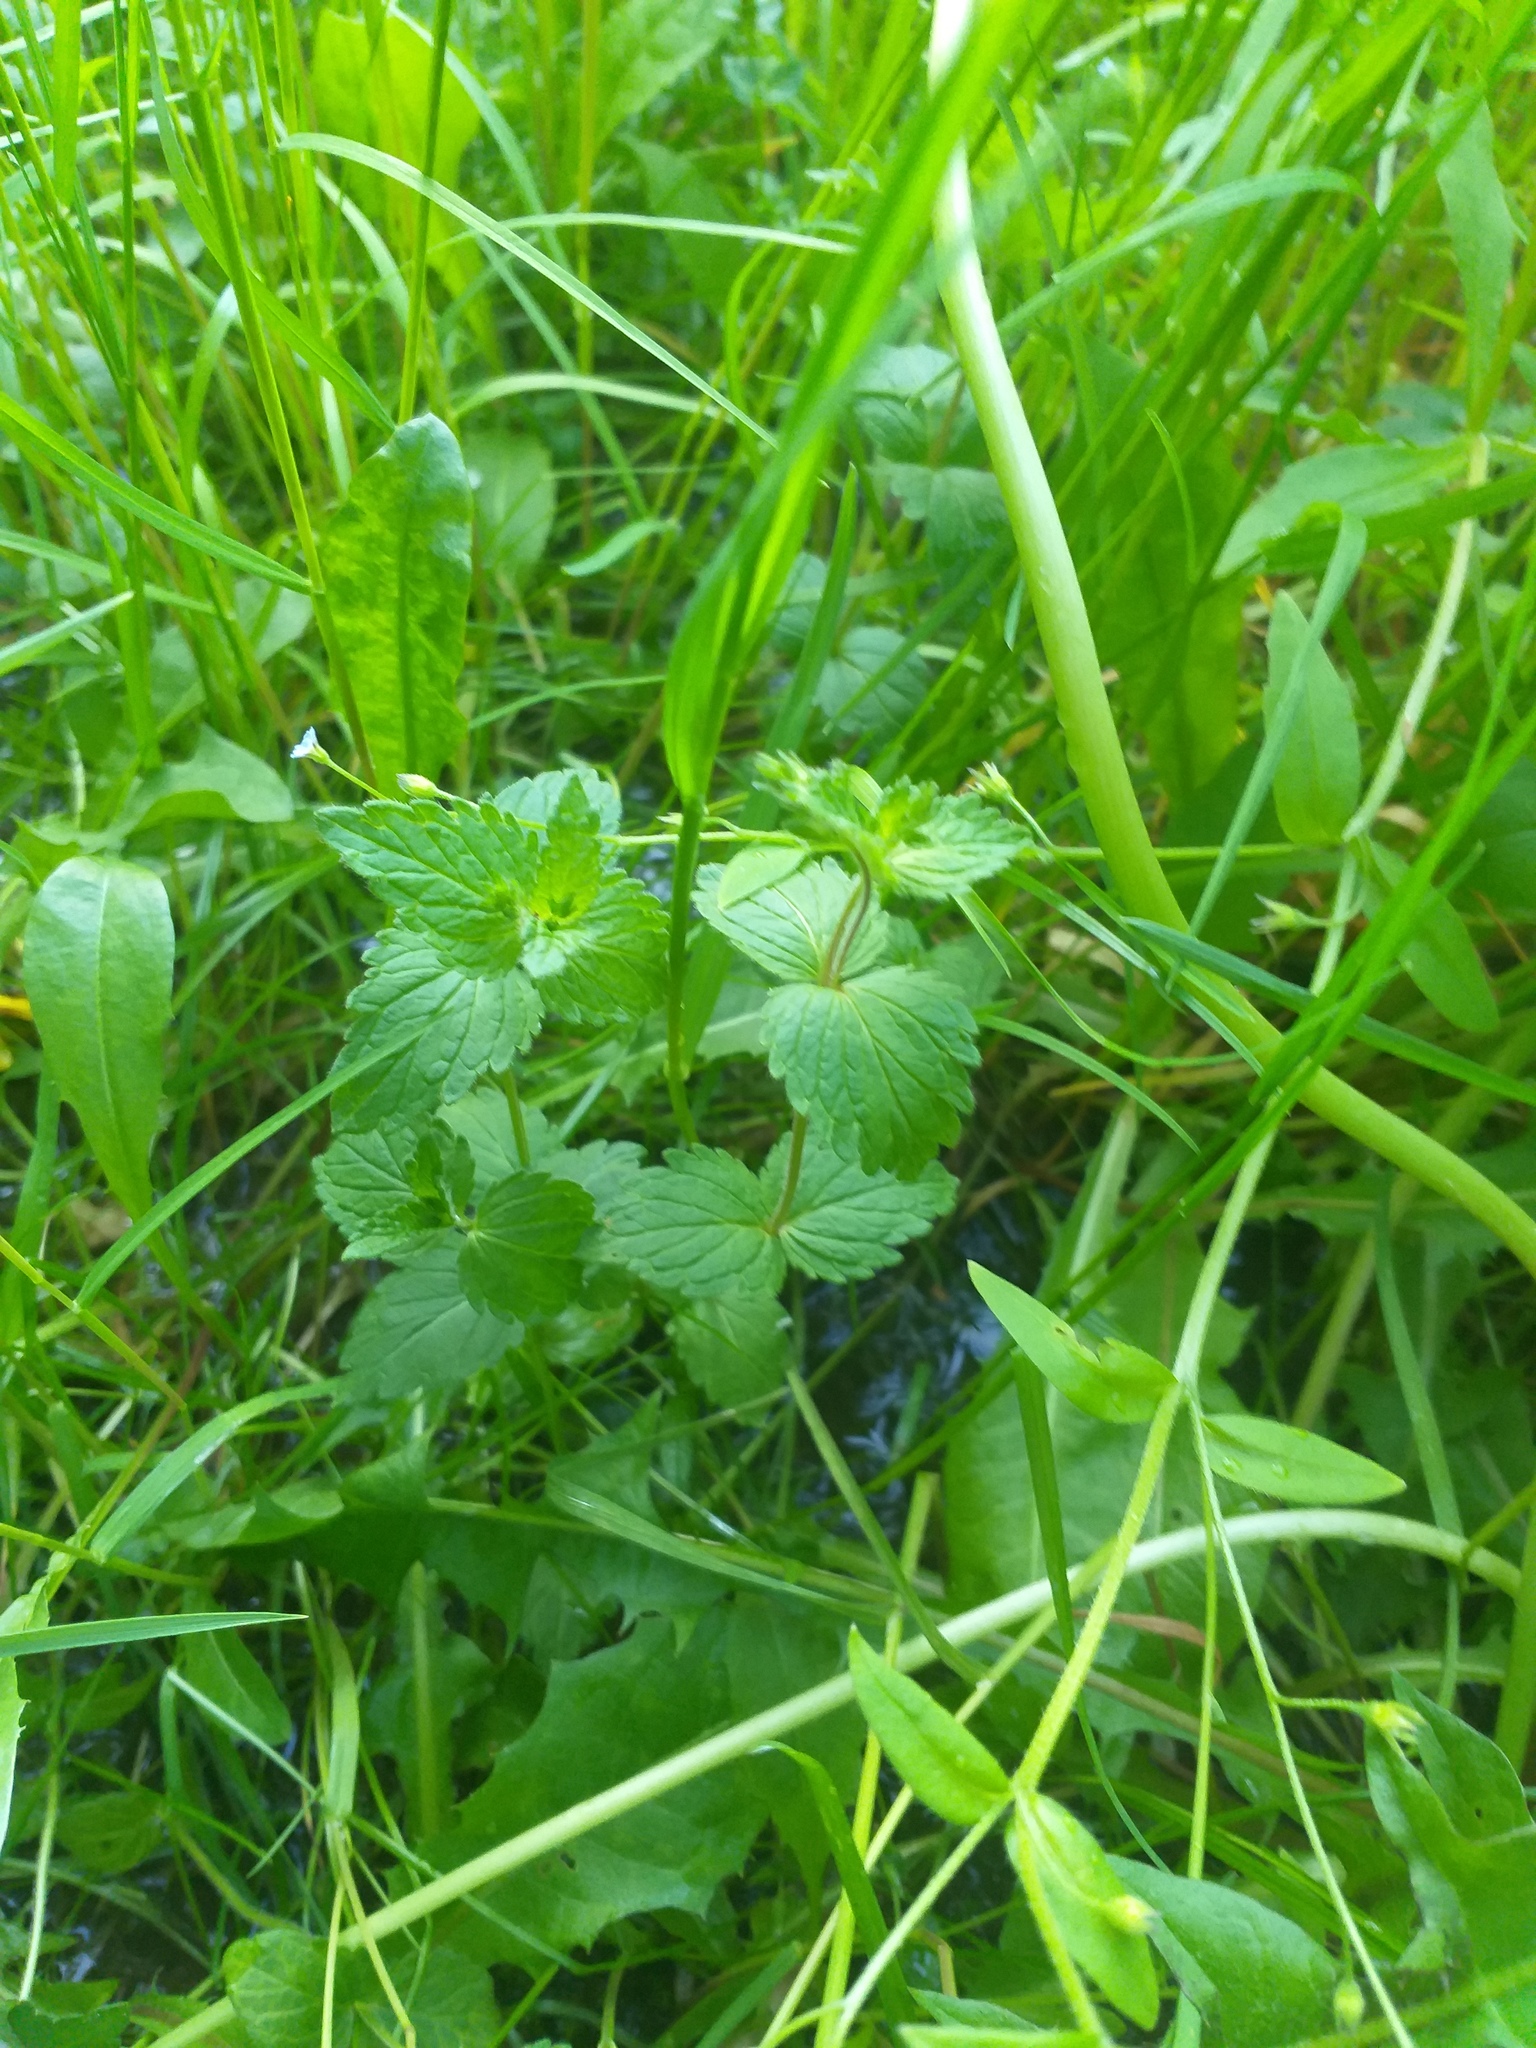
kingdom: Plantae
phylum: Tracheophyta
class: Magnoliopsida
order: Lamiales
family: Plantaginaceae
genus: Veronica
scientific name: Veronica chamaedrys
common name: Germander speedwell
